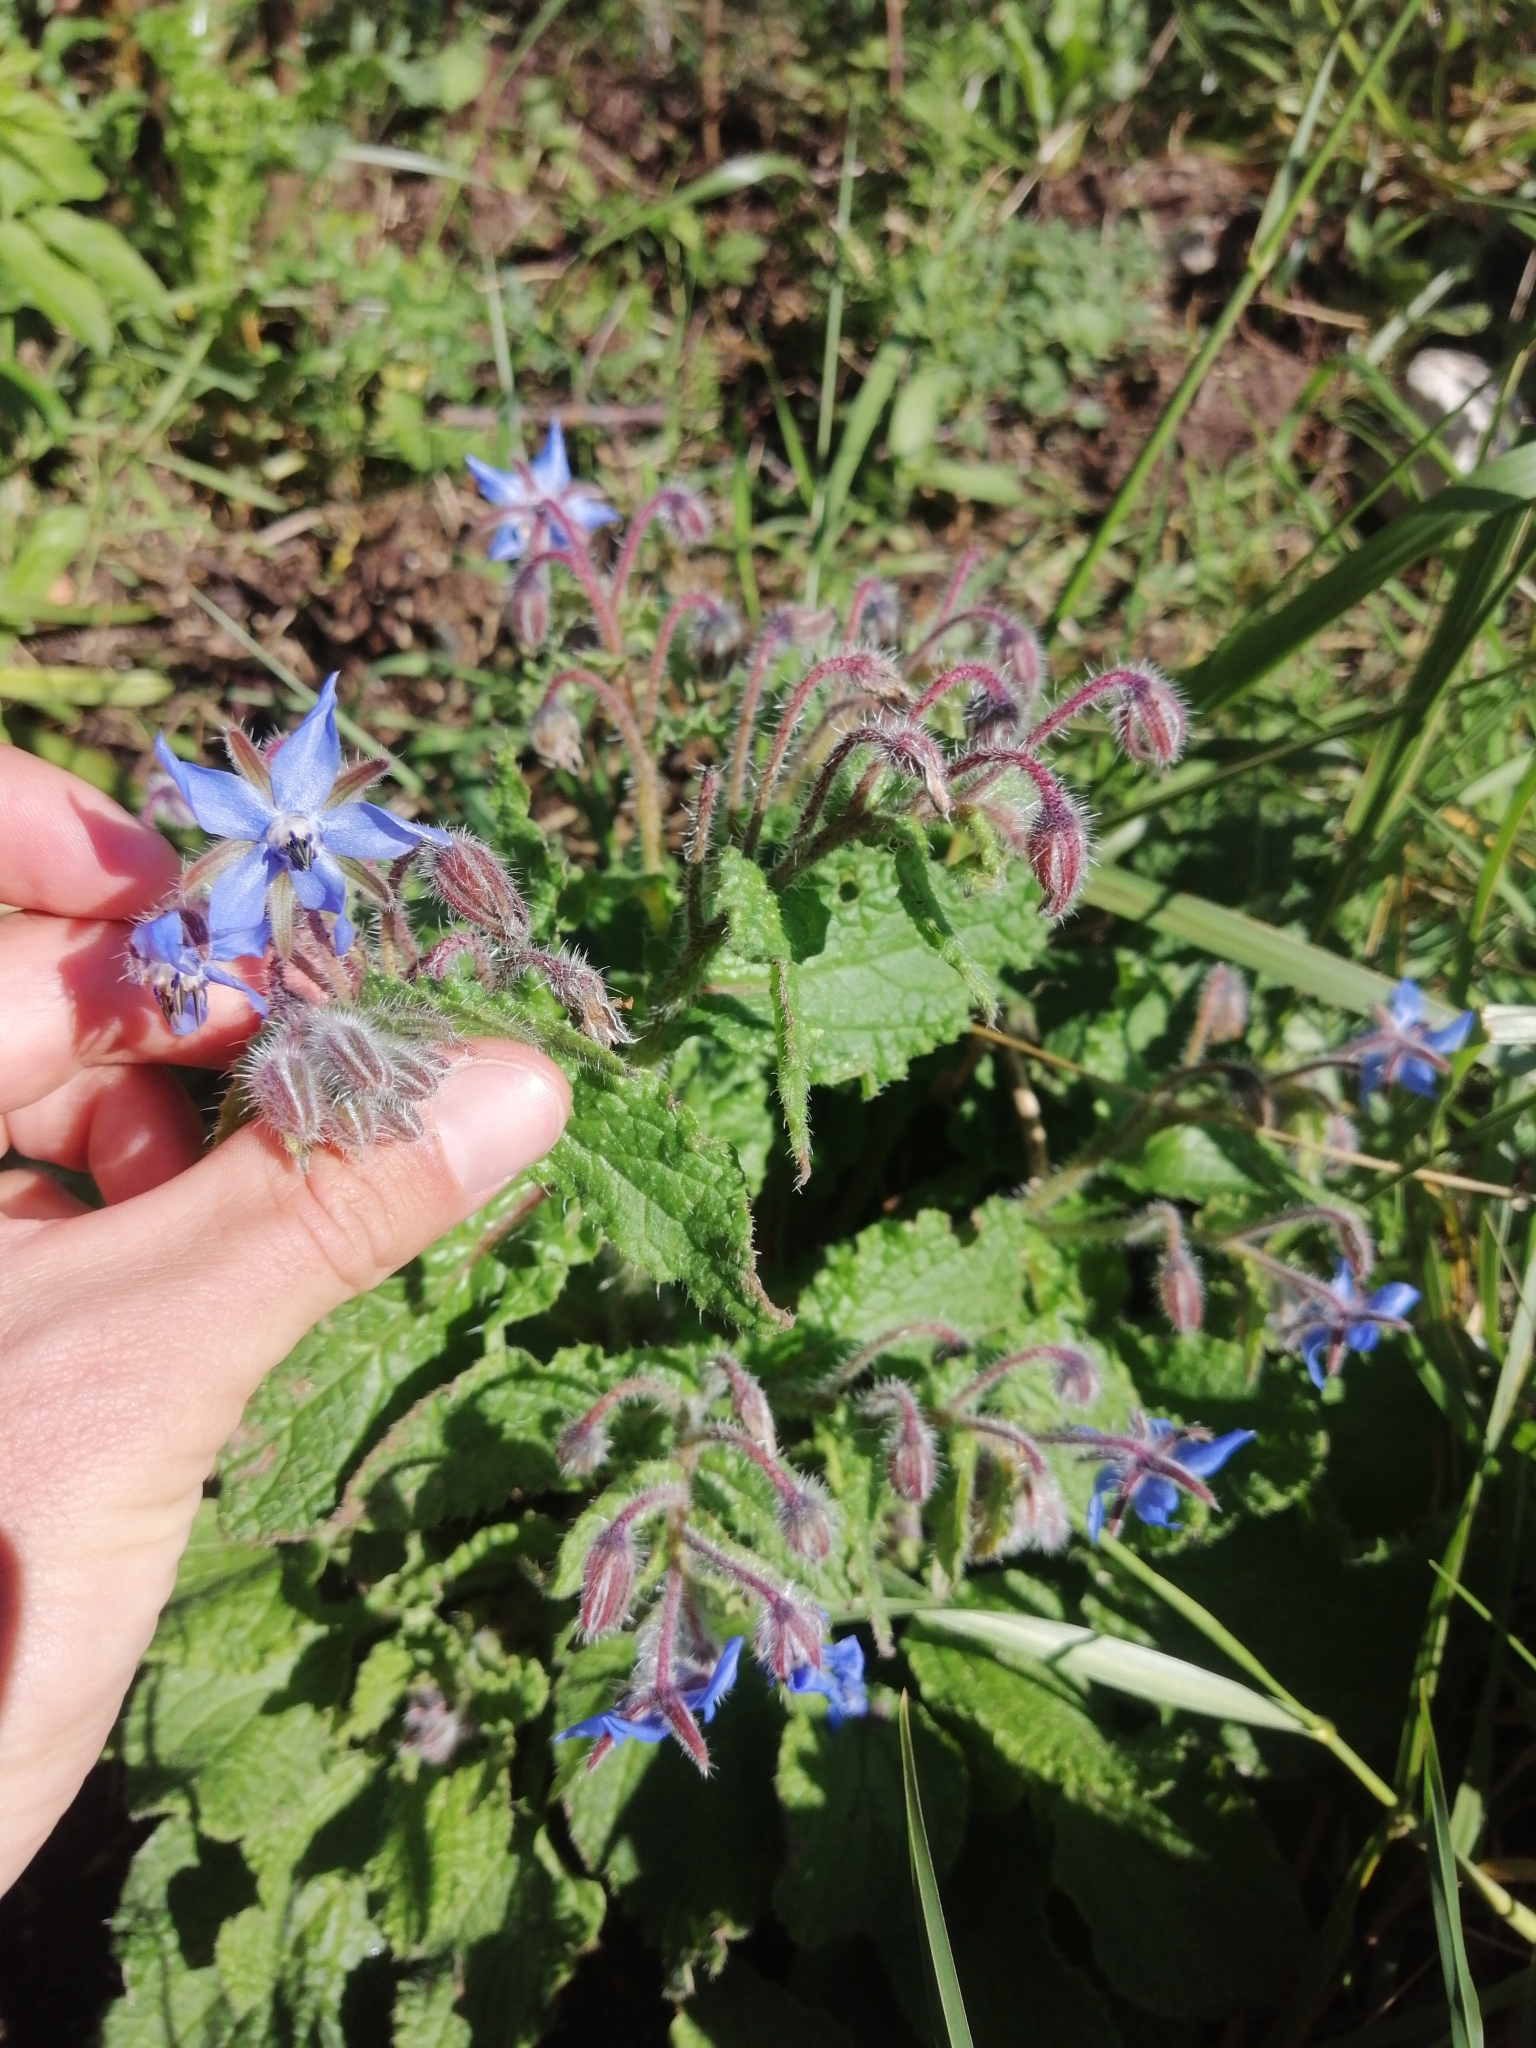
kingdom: Plantae
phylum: Tracheophyta
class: Magnoliopsida
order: Boraginales
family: Boraginaceae
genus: Borago
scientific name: Borago officinalis
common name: Borage
